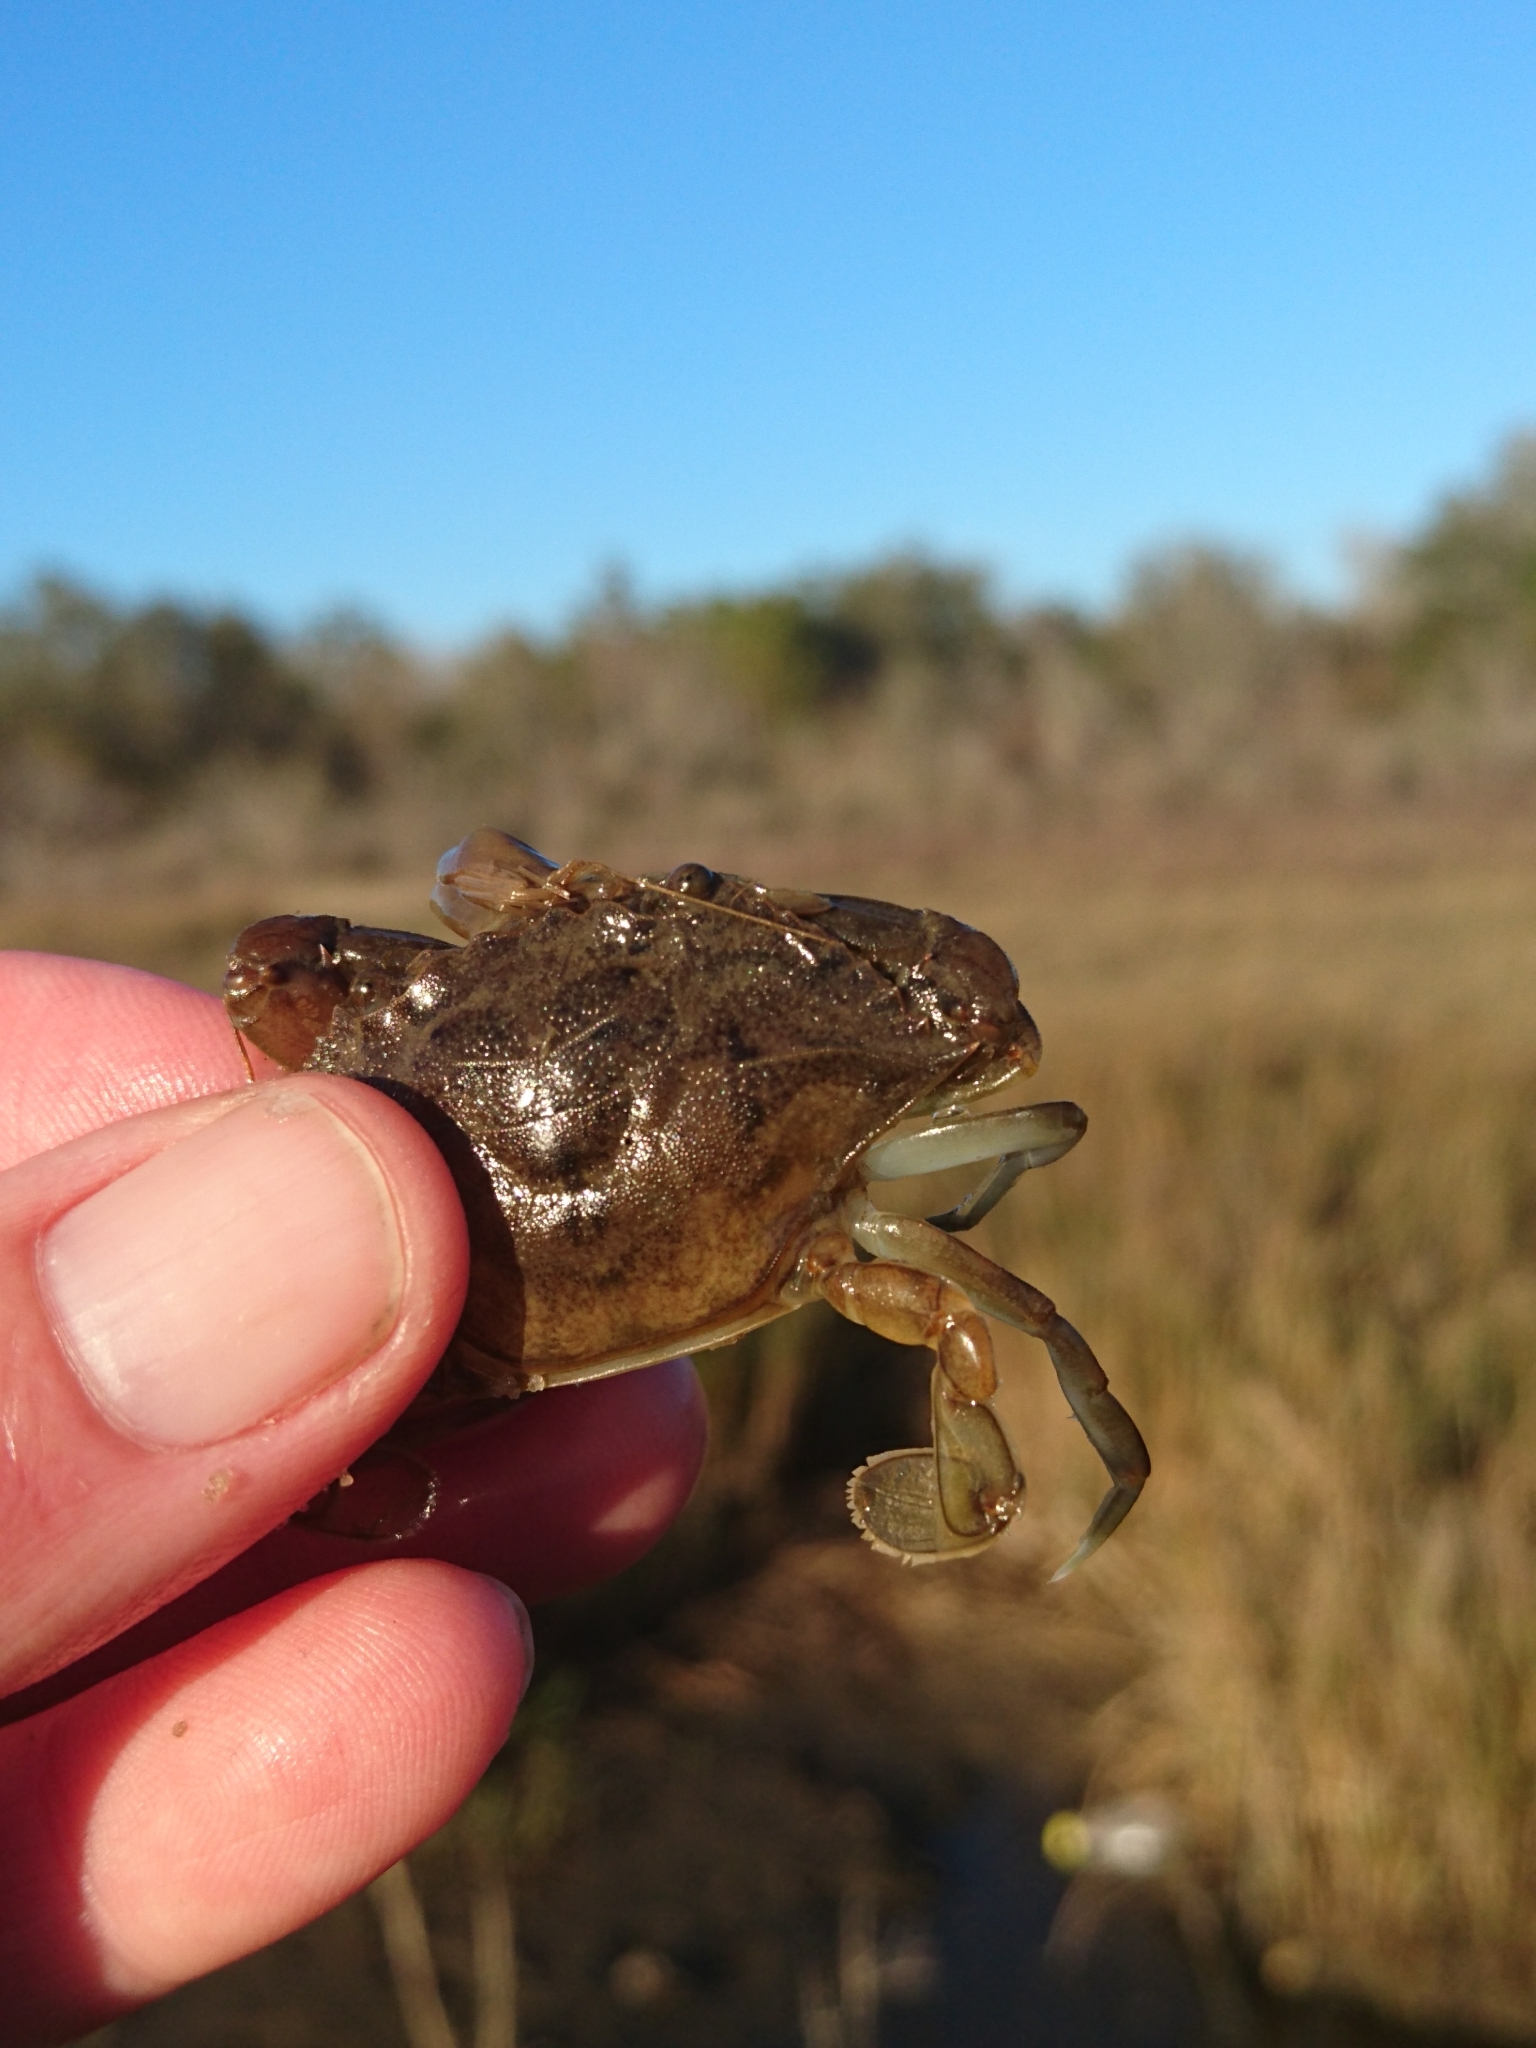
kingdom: Animalia
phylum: Arthropoda
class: Malacostraca
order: Decapoda
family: Portunidae
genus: Callinectes
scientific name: Callinectes sapidus
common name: Blue crab
